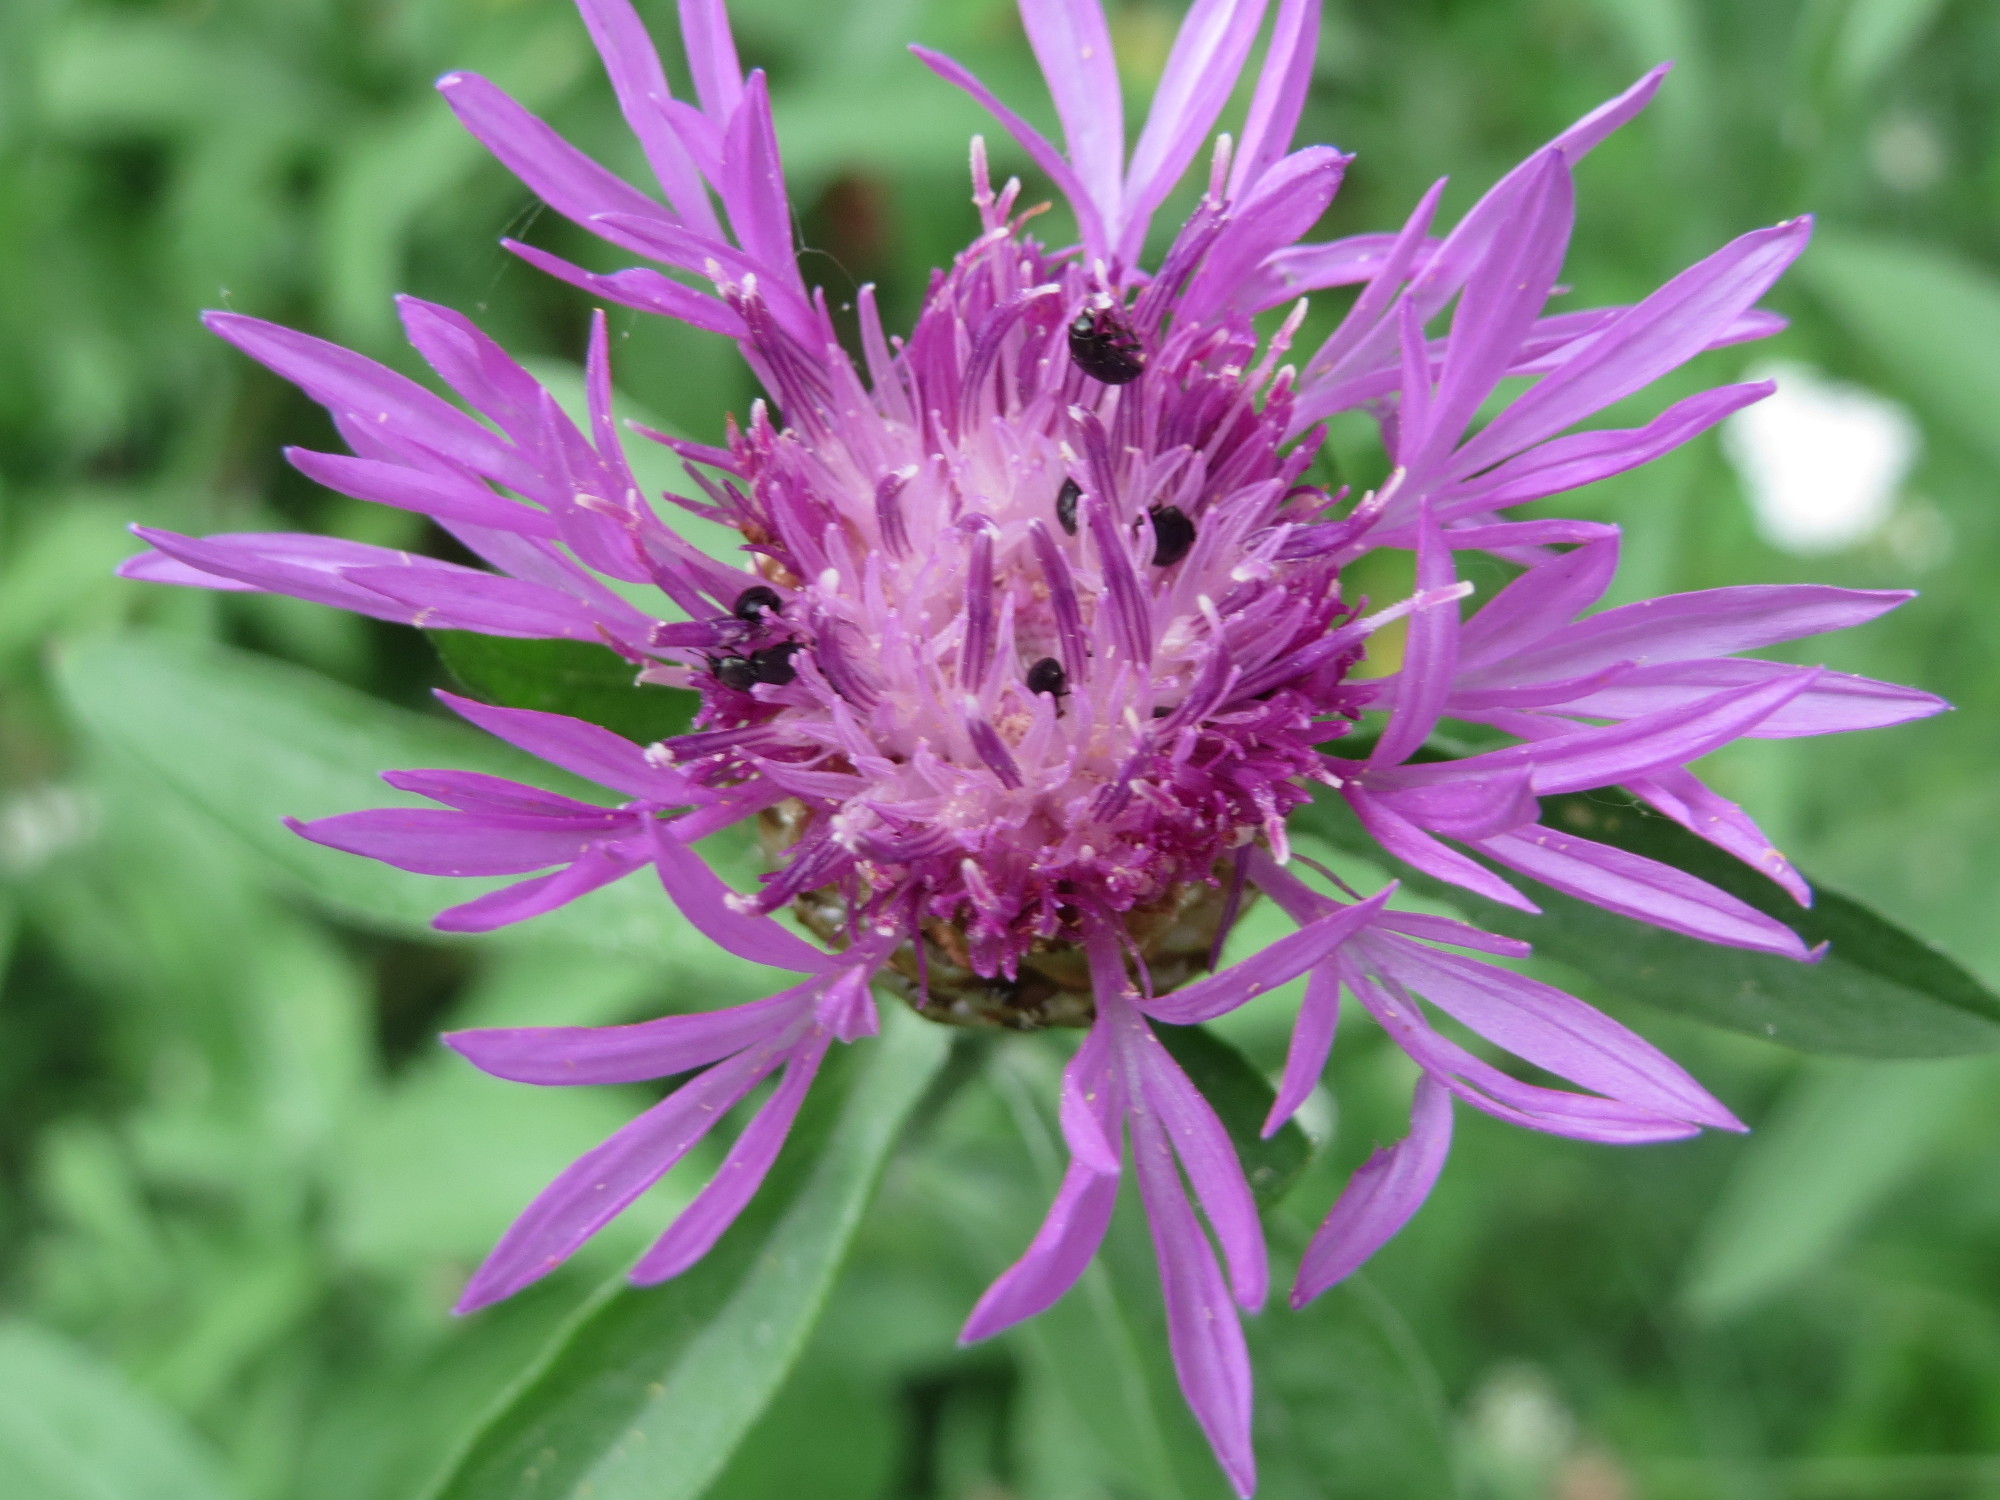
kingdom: Plantae
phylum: Tracheophyta
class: Magnoliopsida
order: Asterales
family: Asteraceae
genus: Centaurea
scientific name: Centaurea jacea
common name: Brown knapweed
